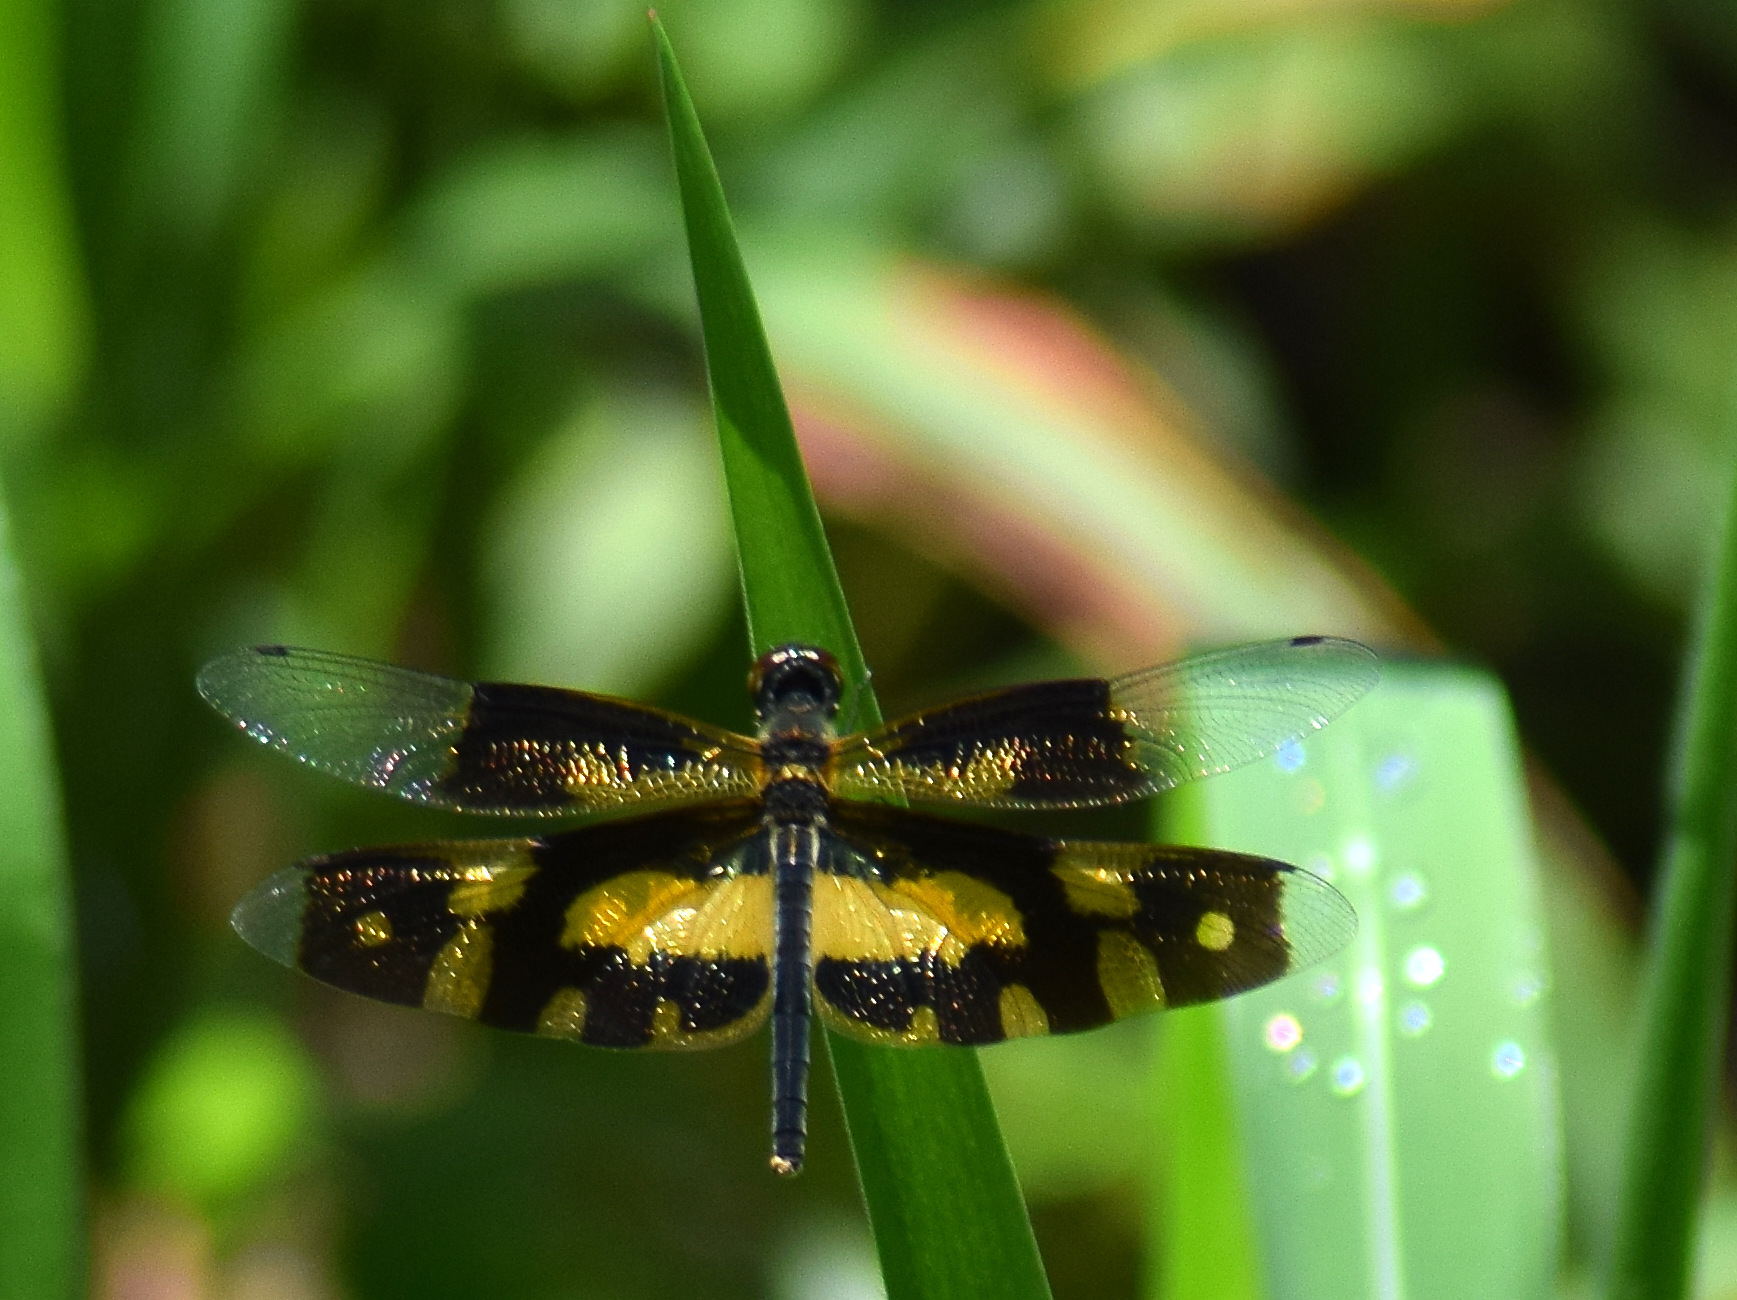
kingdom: Animalia
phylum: Arthropoda
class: Insecta
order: Odonata
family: Libellulidae
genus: Rhyothemis
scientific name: Rhyothemis variegata
